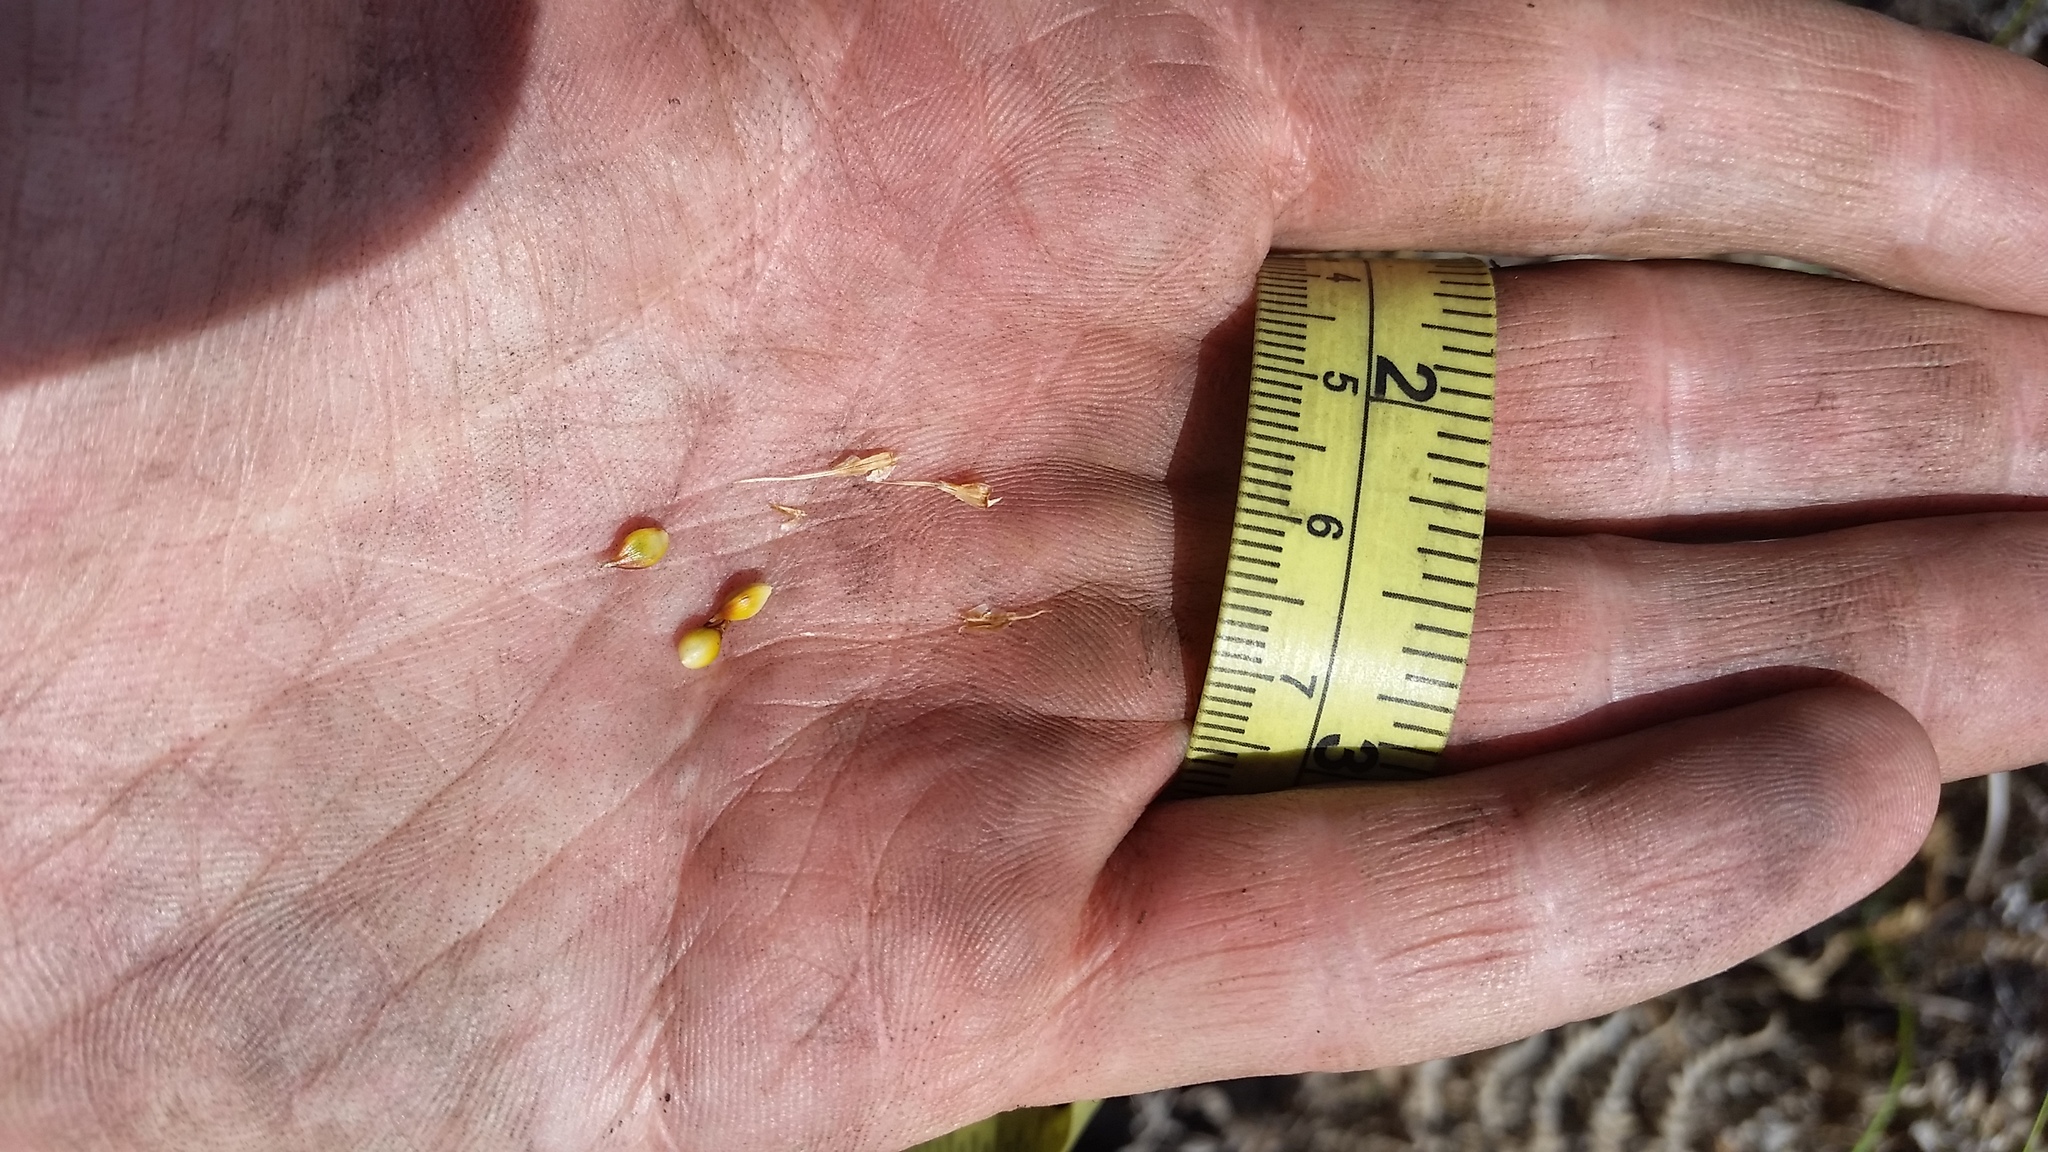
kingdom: Plantae
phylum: Tracheophyta
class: Liliopsida
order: Poales
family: Cyperaceae
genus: Carex
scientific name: Carex wahuensis
